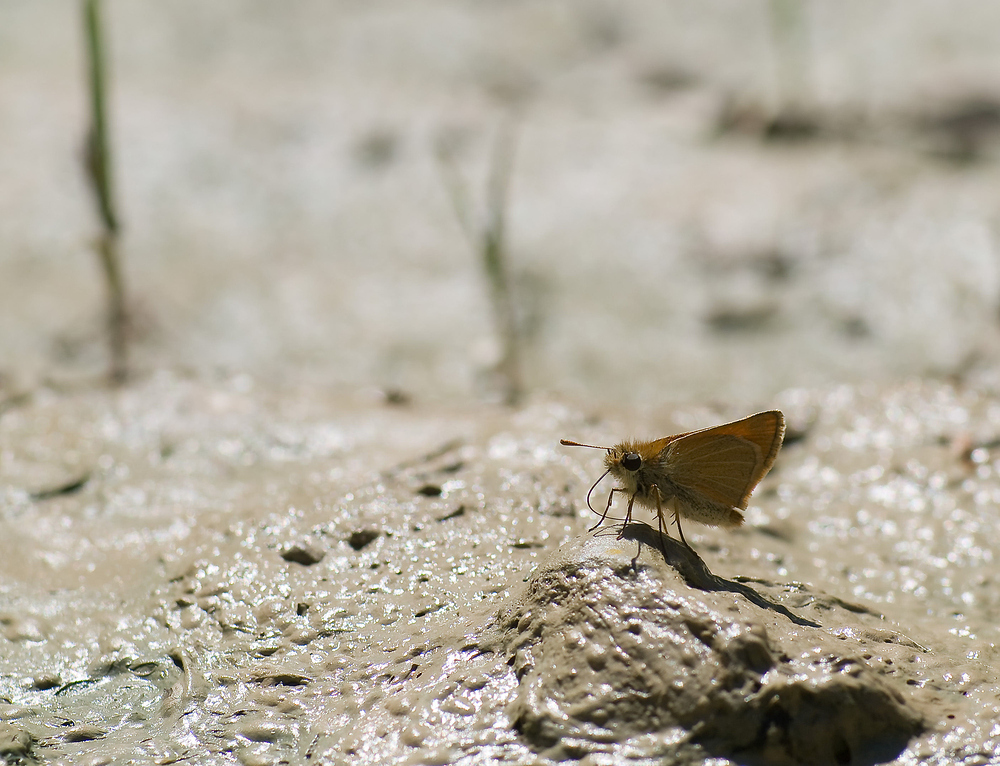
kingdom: Animalia
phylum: Arthropoda
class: Insecta
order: Lepidoptera
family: Hesperiidae
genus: Thymelicus
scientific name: Thymelicus sylvestris
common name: Small skipper
